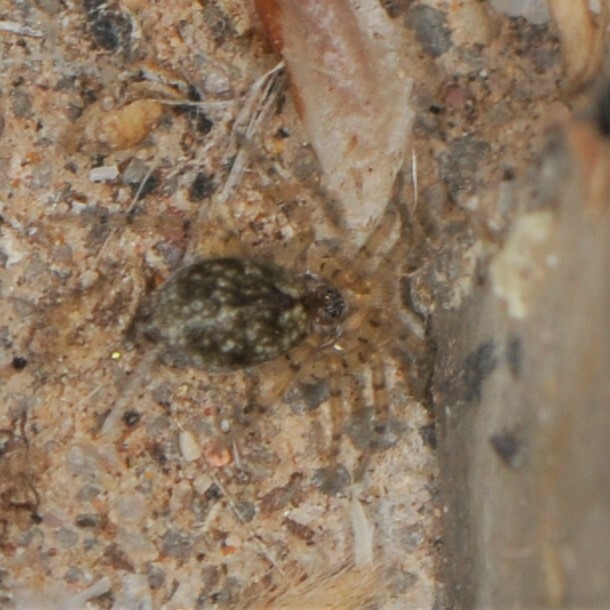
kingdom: Animalia
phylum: Arthropoda
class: Arachnida
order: Araneae
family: Oecobiidae
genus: Oecobius
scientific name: Oecobius
